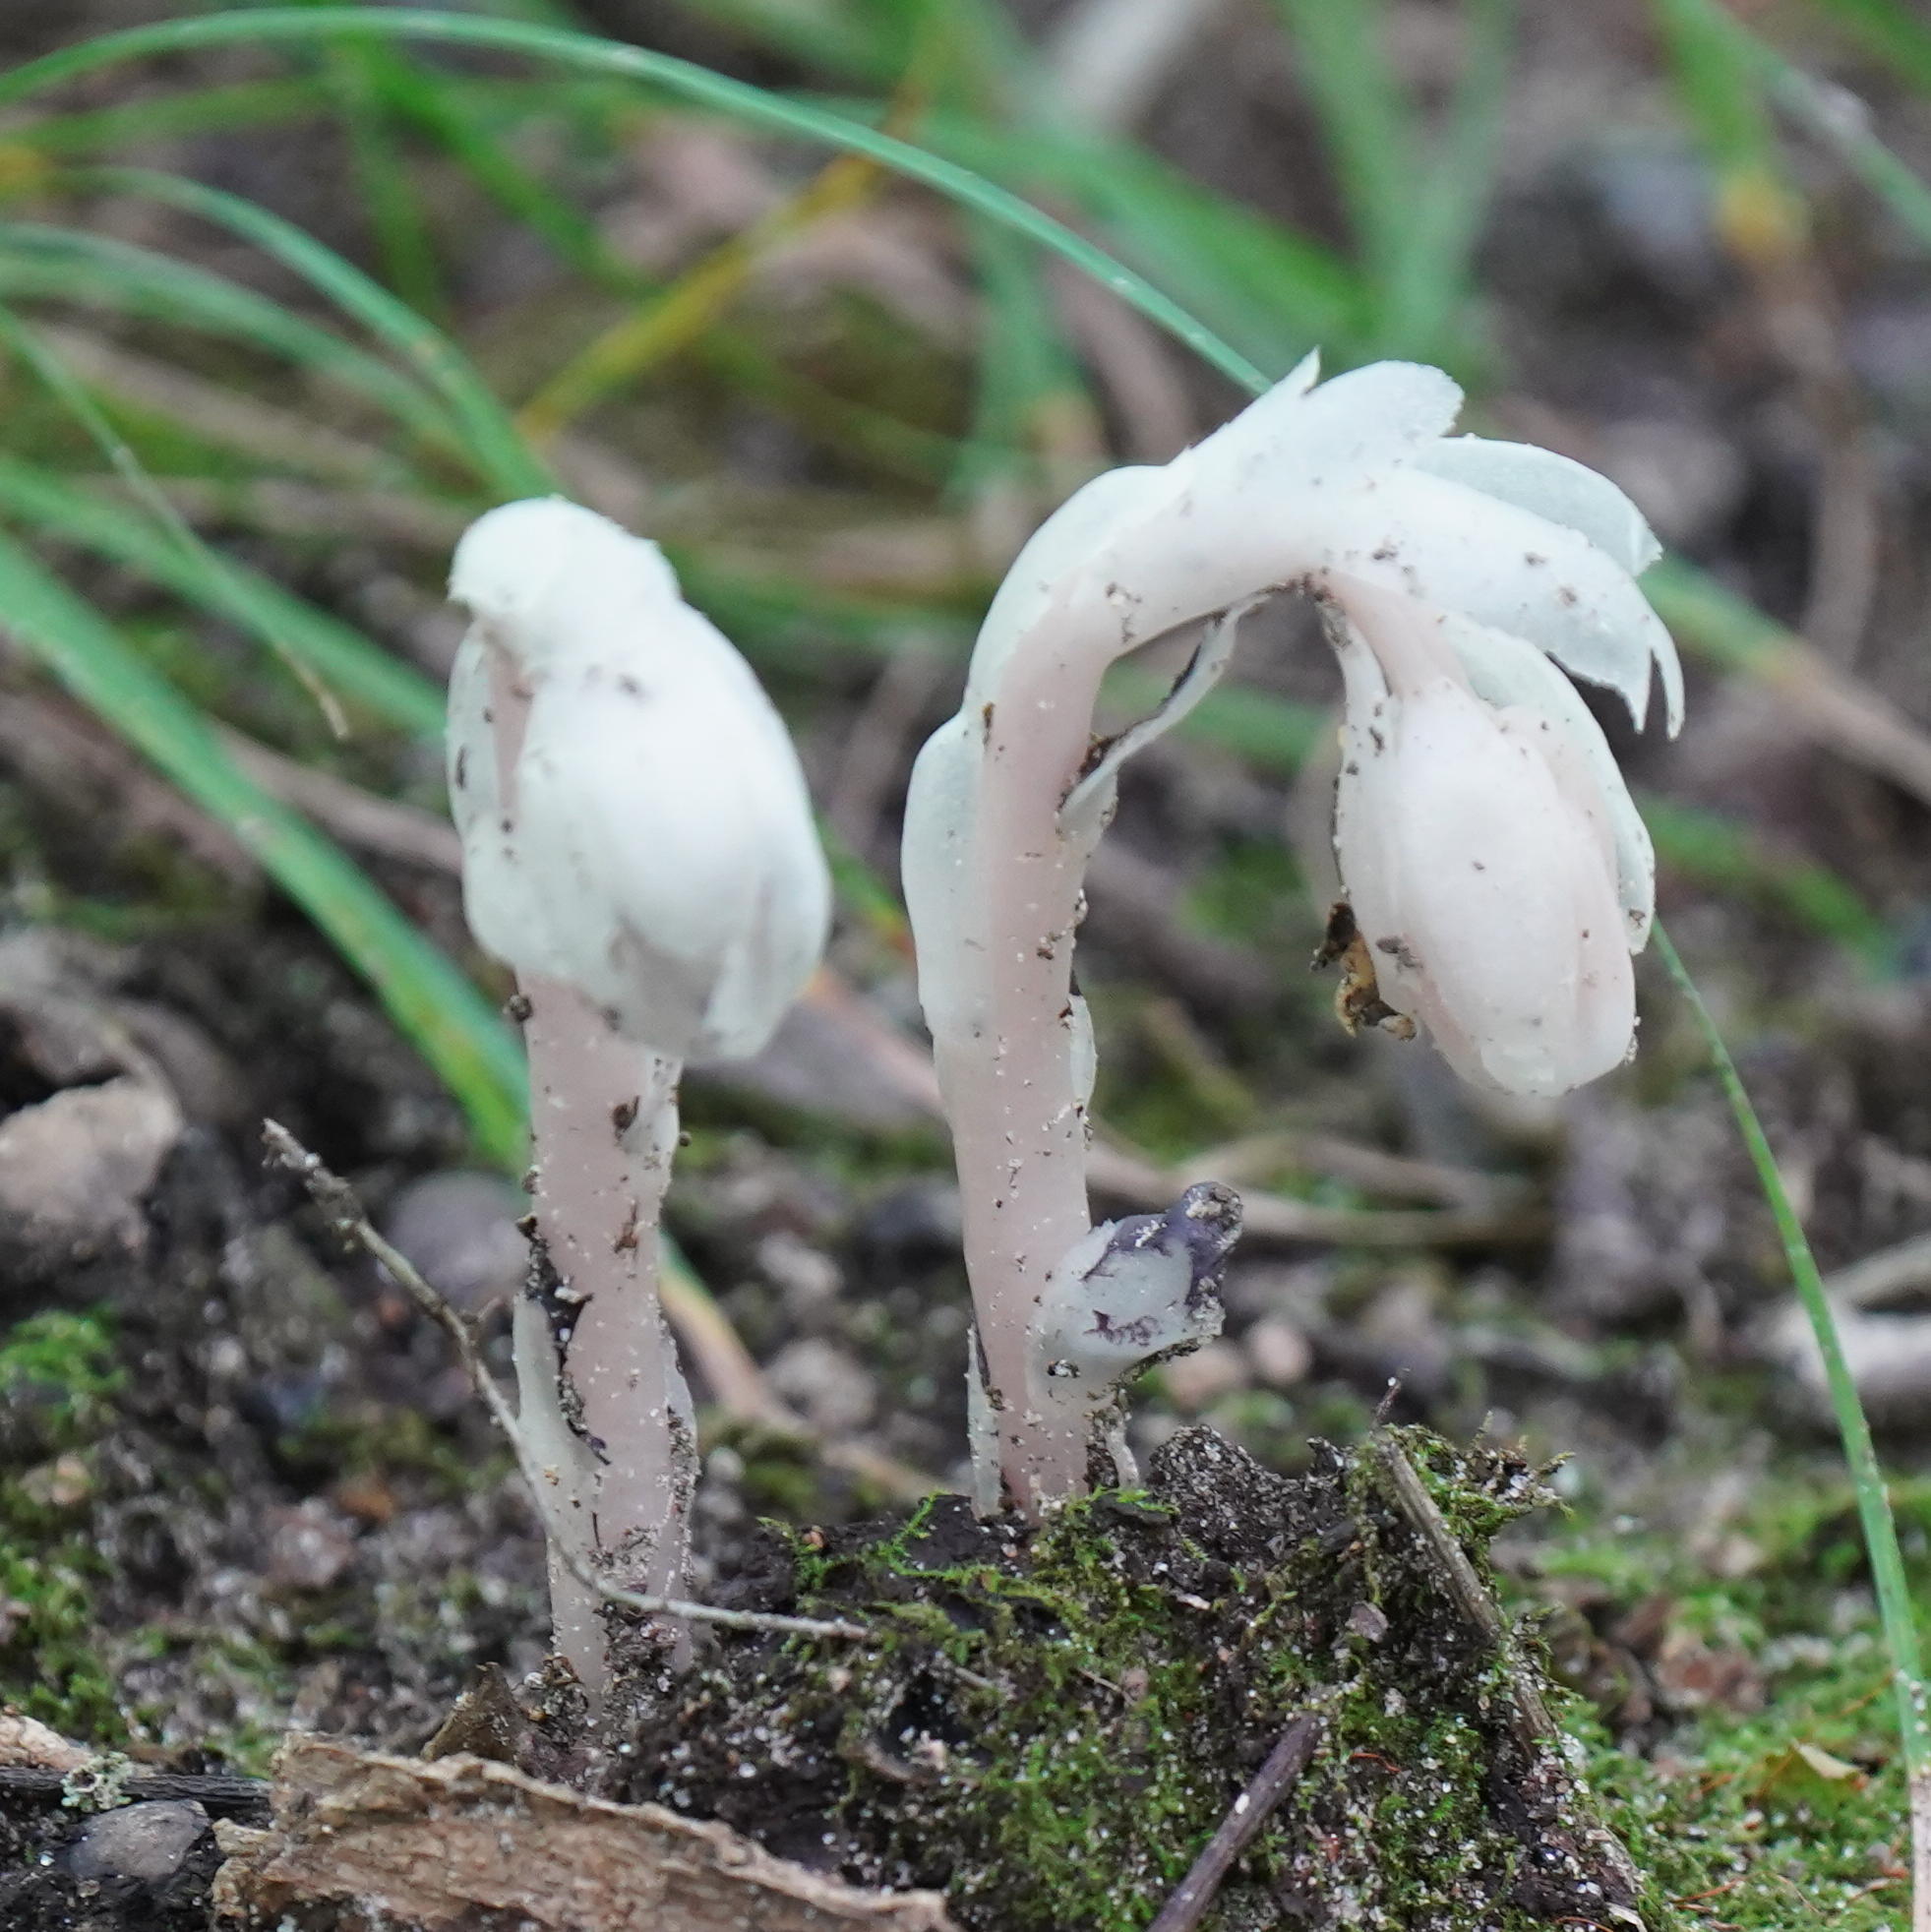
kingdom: Plantae
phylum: Tracheophyta
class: Magnoliopsida
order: Ericales
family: Ericaceae
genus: Monotropa
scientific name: Monotropa uniflora
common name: Convulsion root
